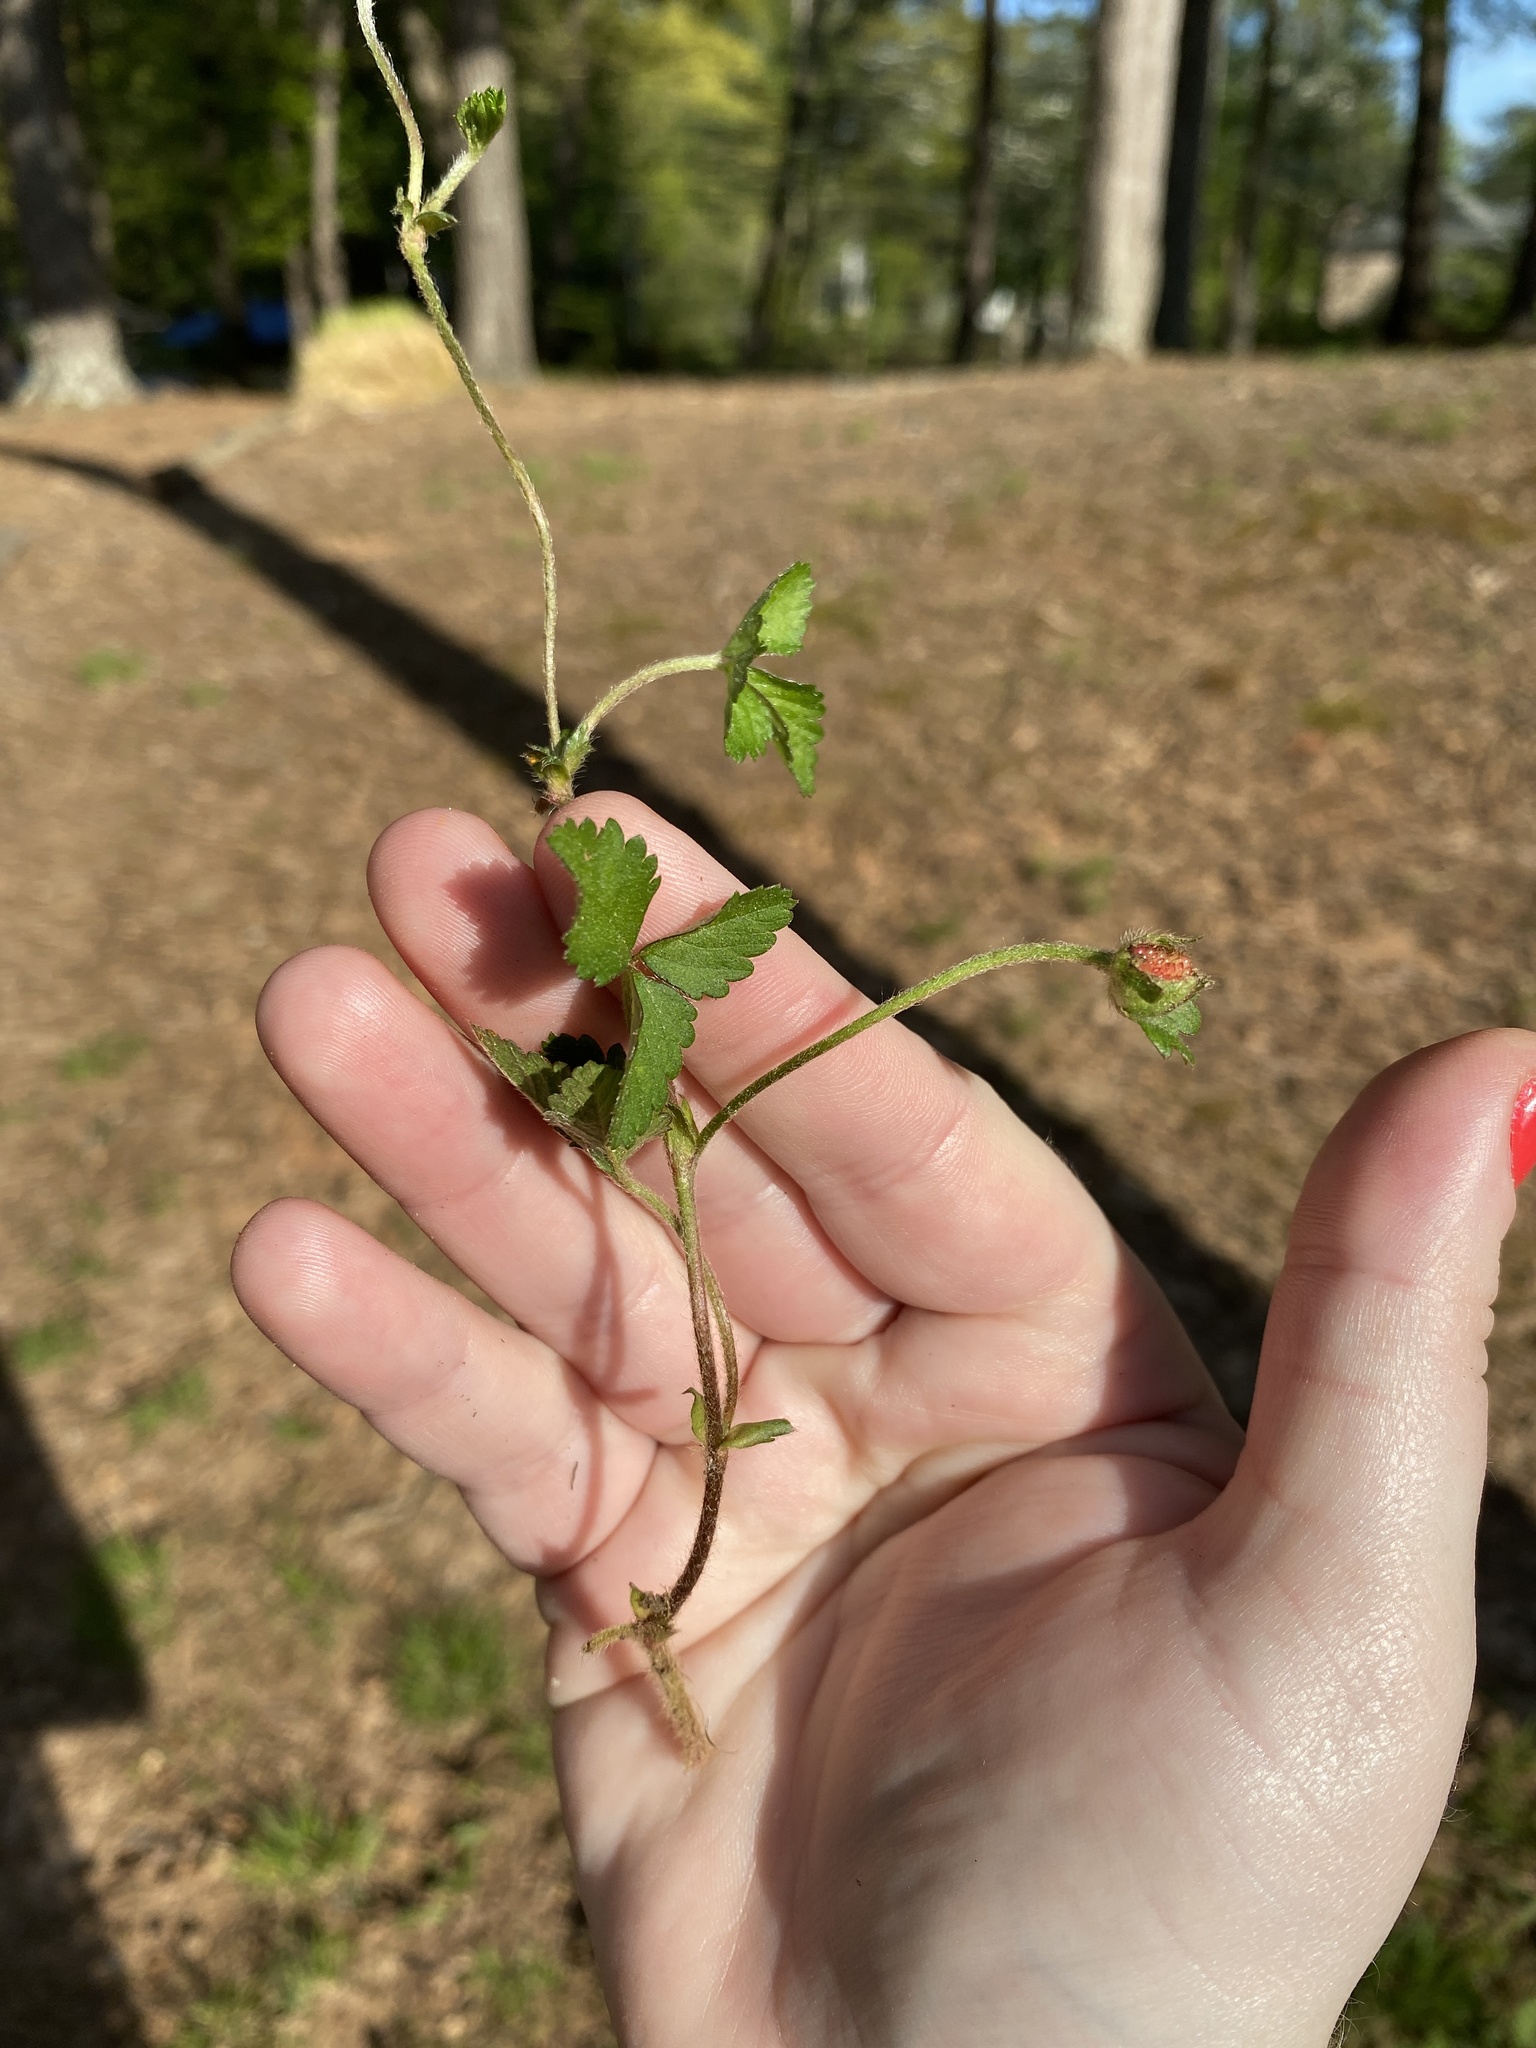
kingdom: Plantae
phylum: Tracheophyta
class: Magnoliopsida
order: Rosales
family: Rosaceae
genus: Potentilla
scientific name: Potentilla indica
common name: Yellow-flowered strawberry
